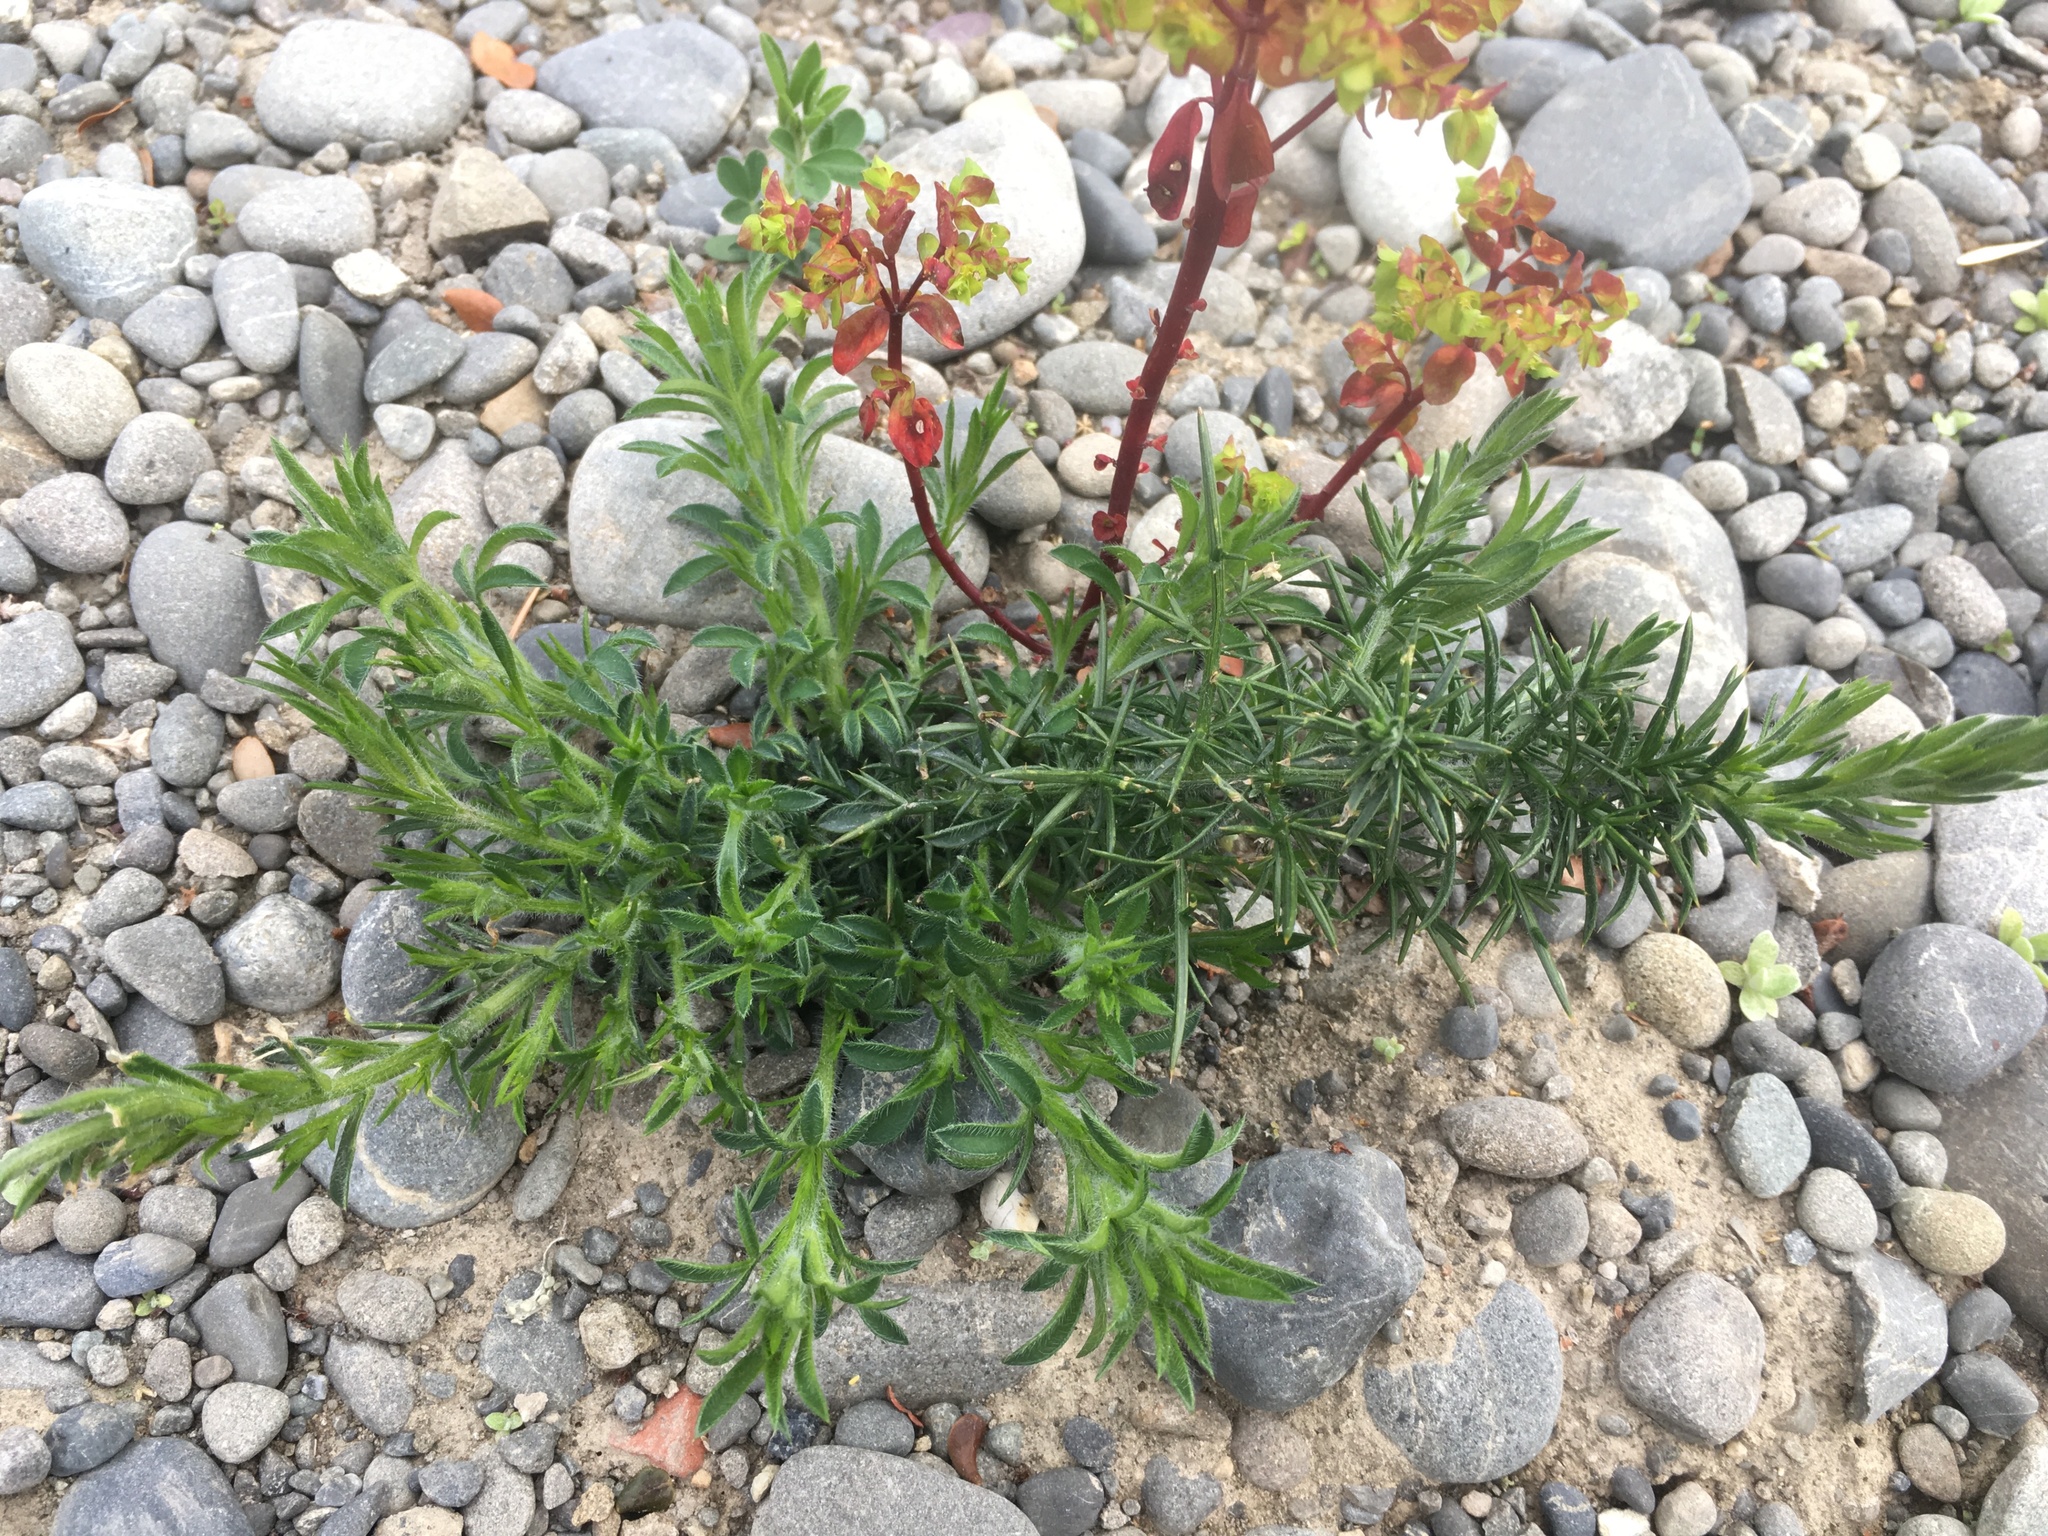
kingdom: Plantae
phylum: Tracheophyta
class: Magnoliopsida
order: Fabales
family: Fabaceae
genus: Ulex
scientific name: Ulex europaeus
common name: Common gorse
